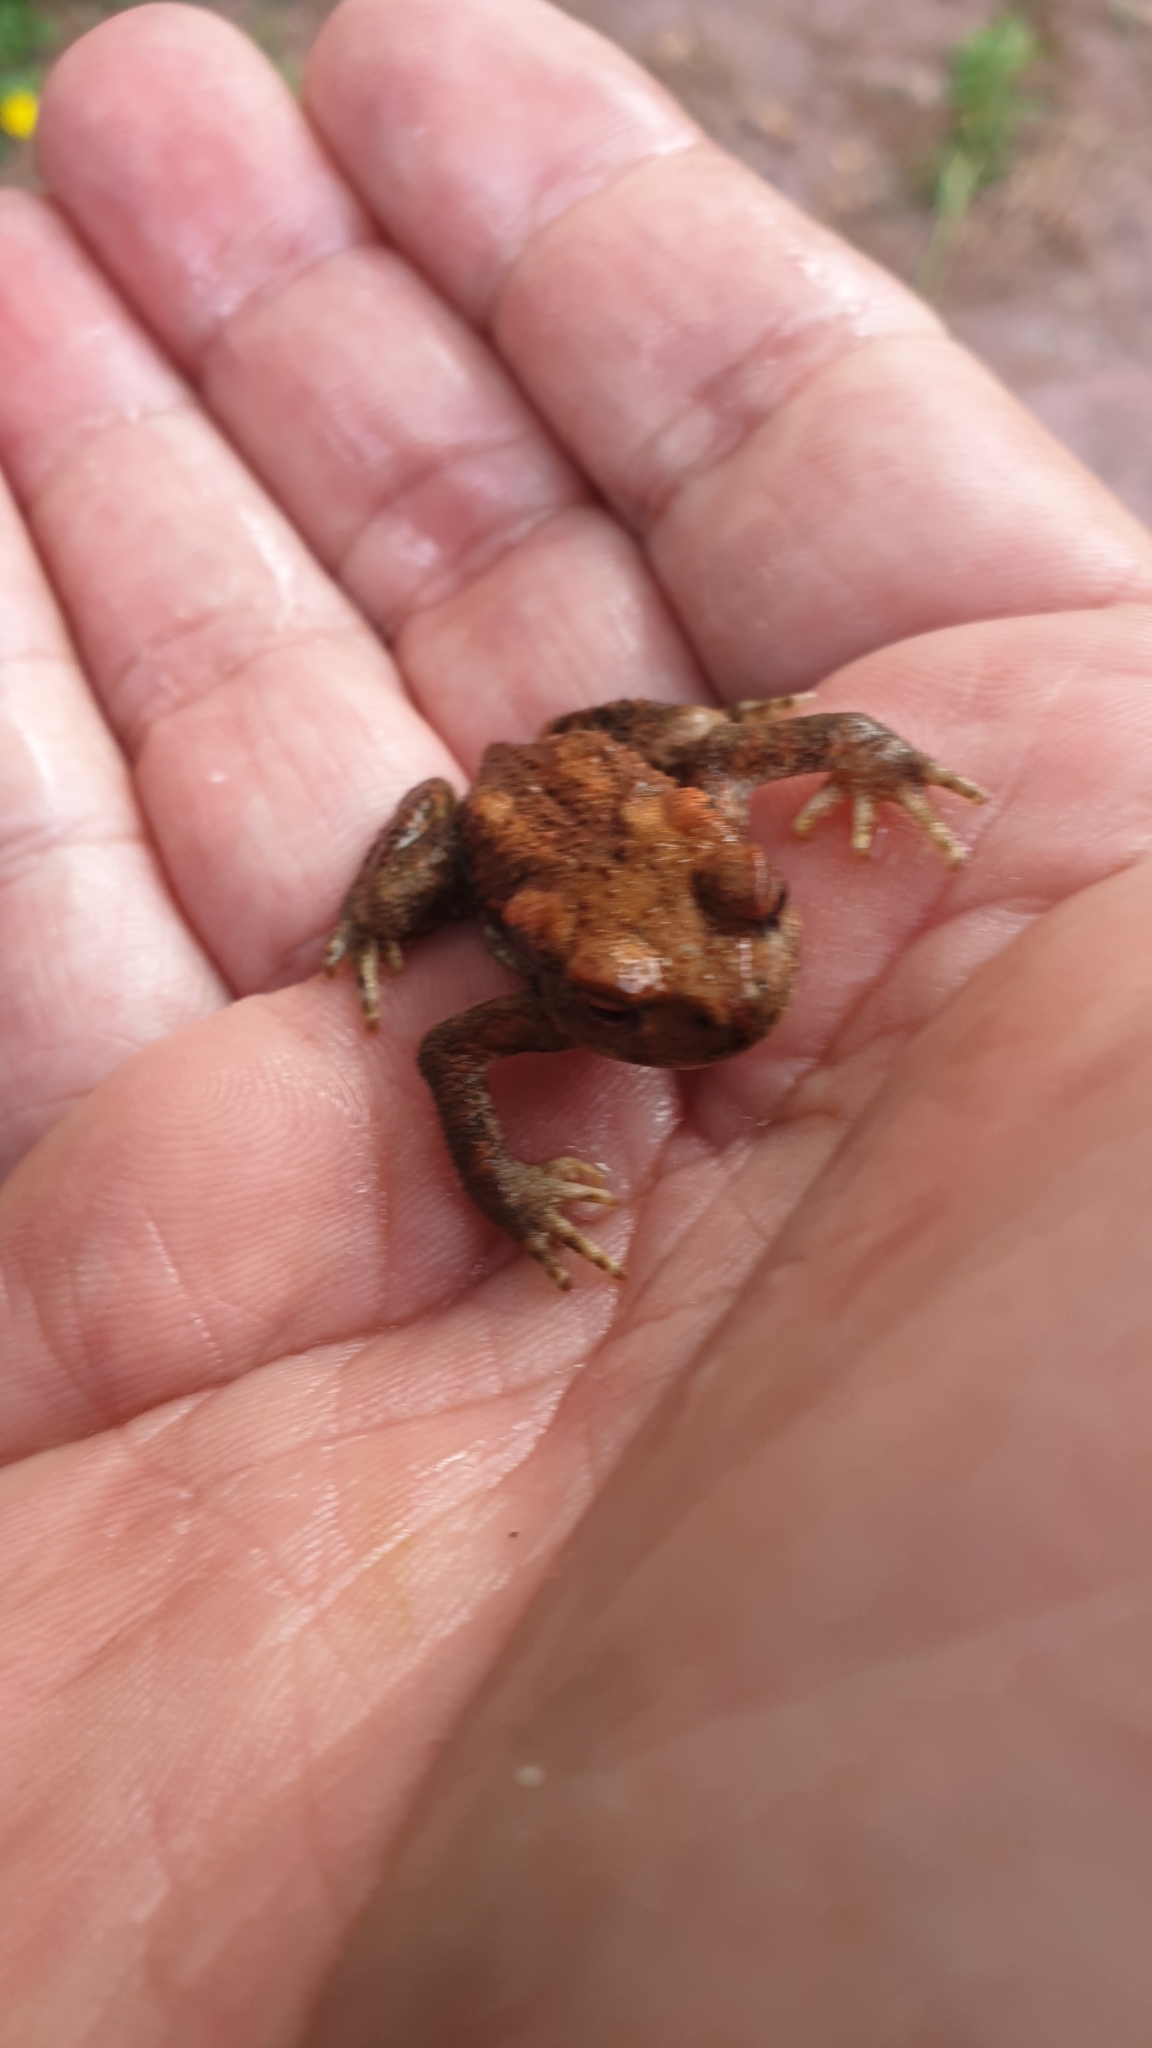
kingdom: Animalia
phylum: Chordata
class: Amphibia
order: Anura
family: Bufonidae
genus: Bufo
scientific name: Bufo spinosus
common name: Western common toad
